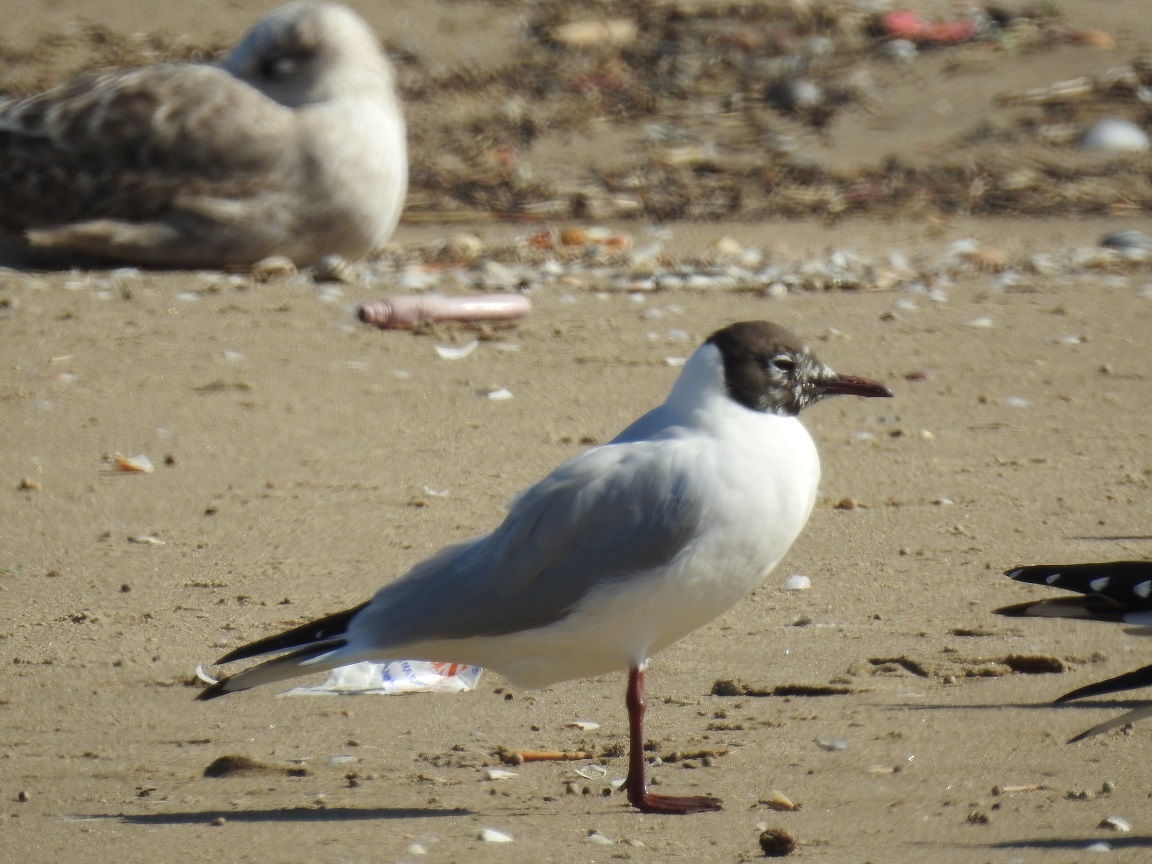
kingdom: Animalia
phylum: Chordata
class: Aves
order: Charadriiformes
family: Laridae
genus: Chroicocephalus
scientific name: Chroicocephalus ridibundus
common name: Black-headed gull
